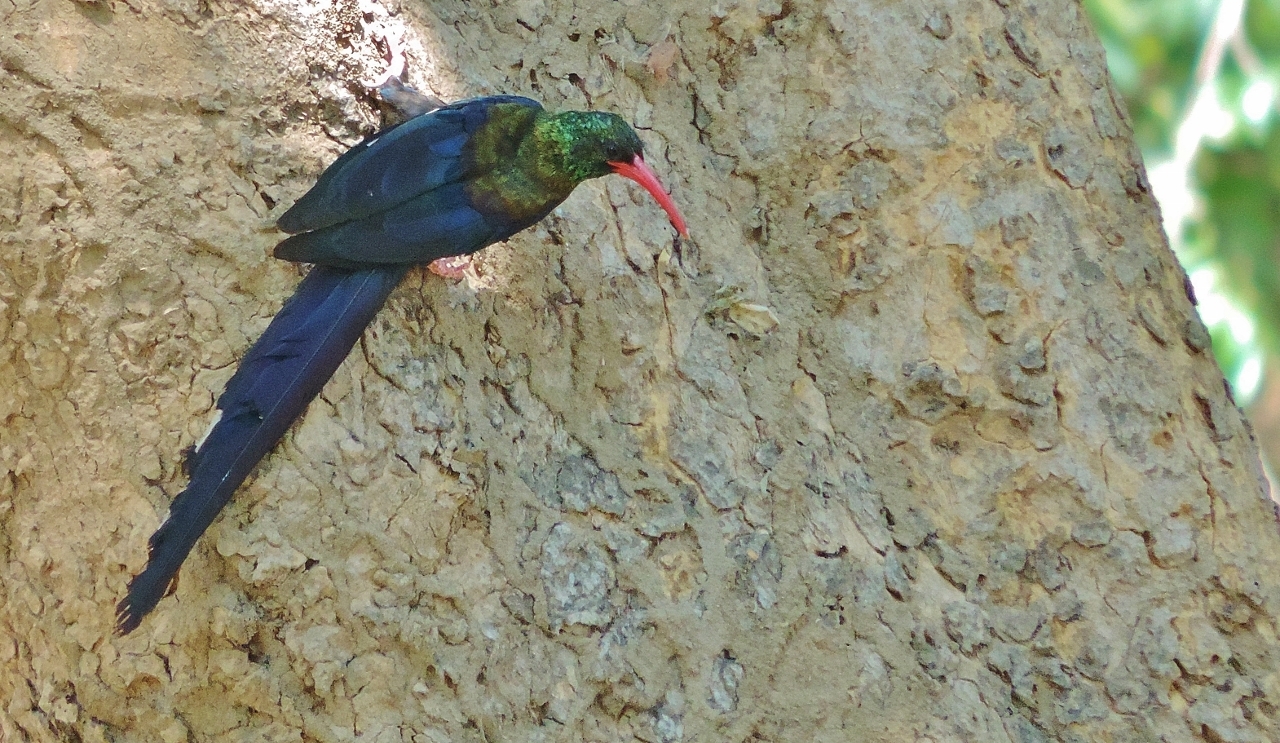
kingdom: Animalia
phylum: Chordata
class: Aves
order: Bucerotiformes
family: Phoeniculidae
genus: Phoeniculus
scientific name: Phoeniculus purpureus
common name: Green woodhoopoe
